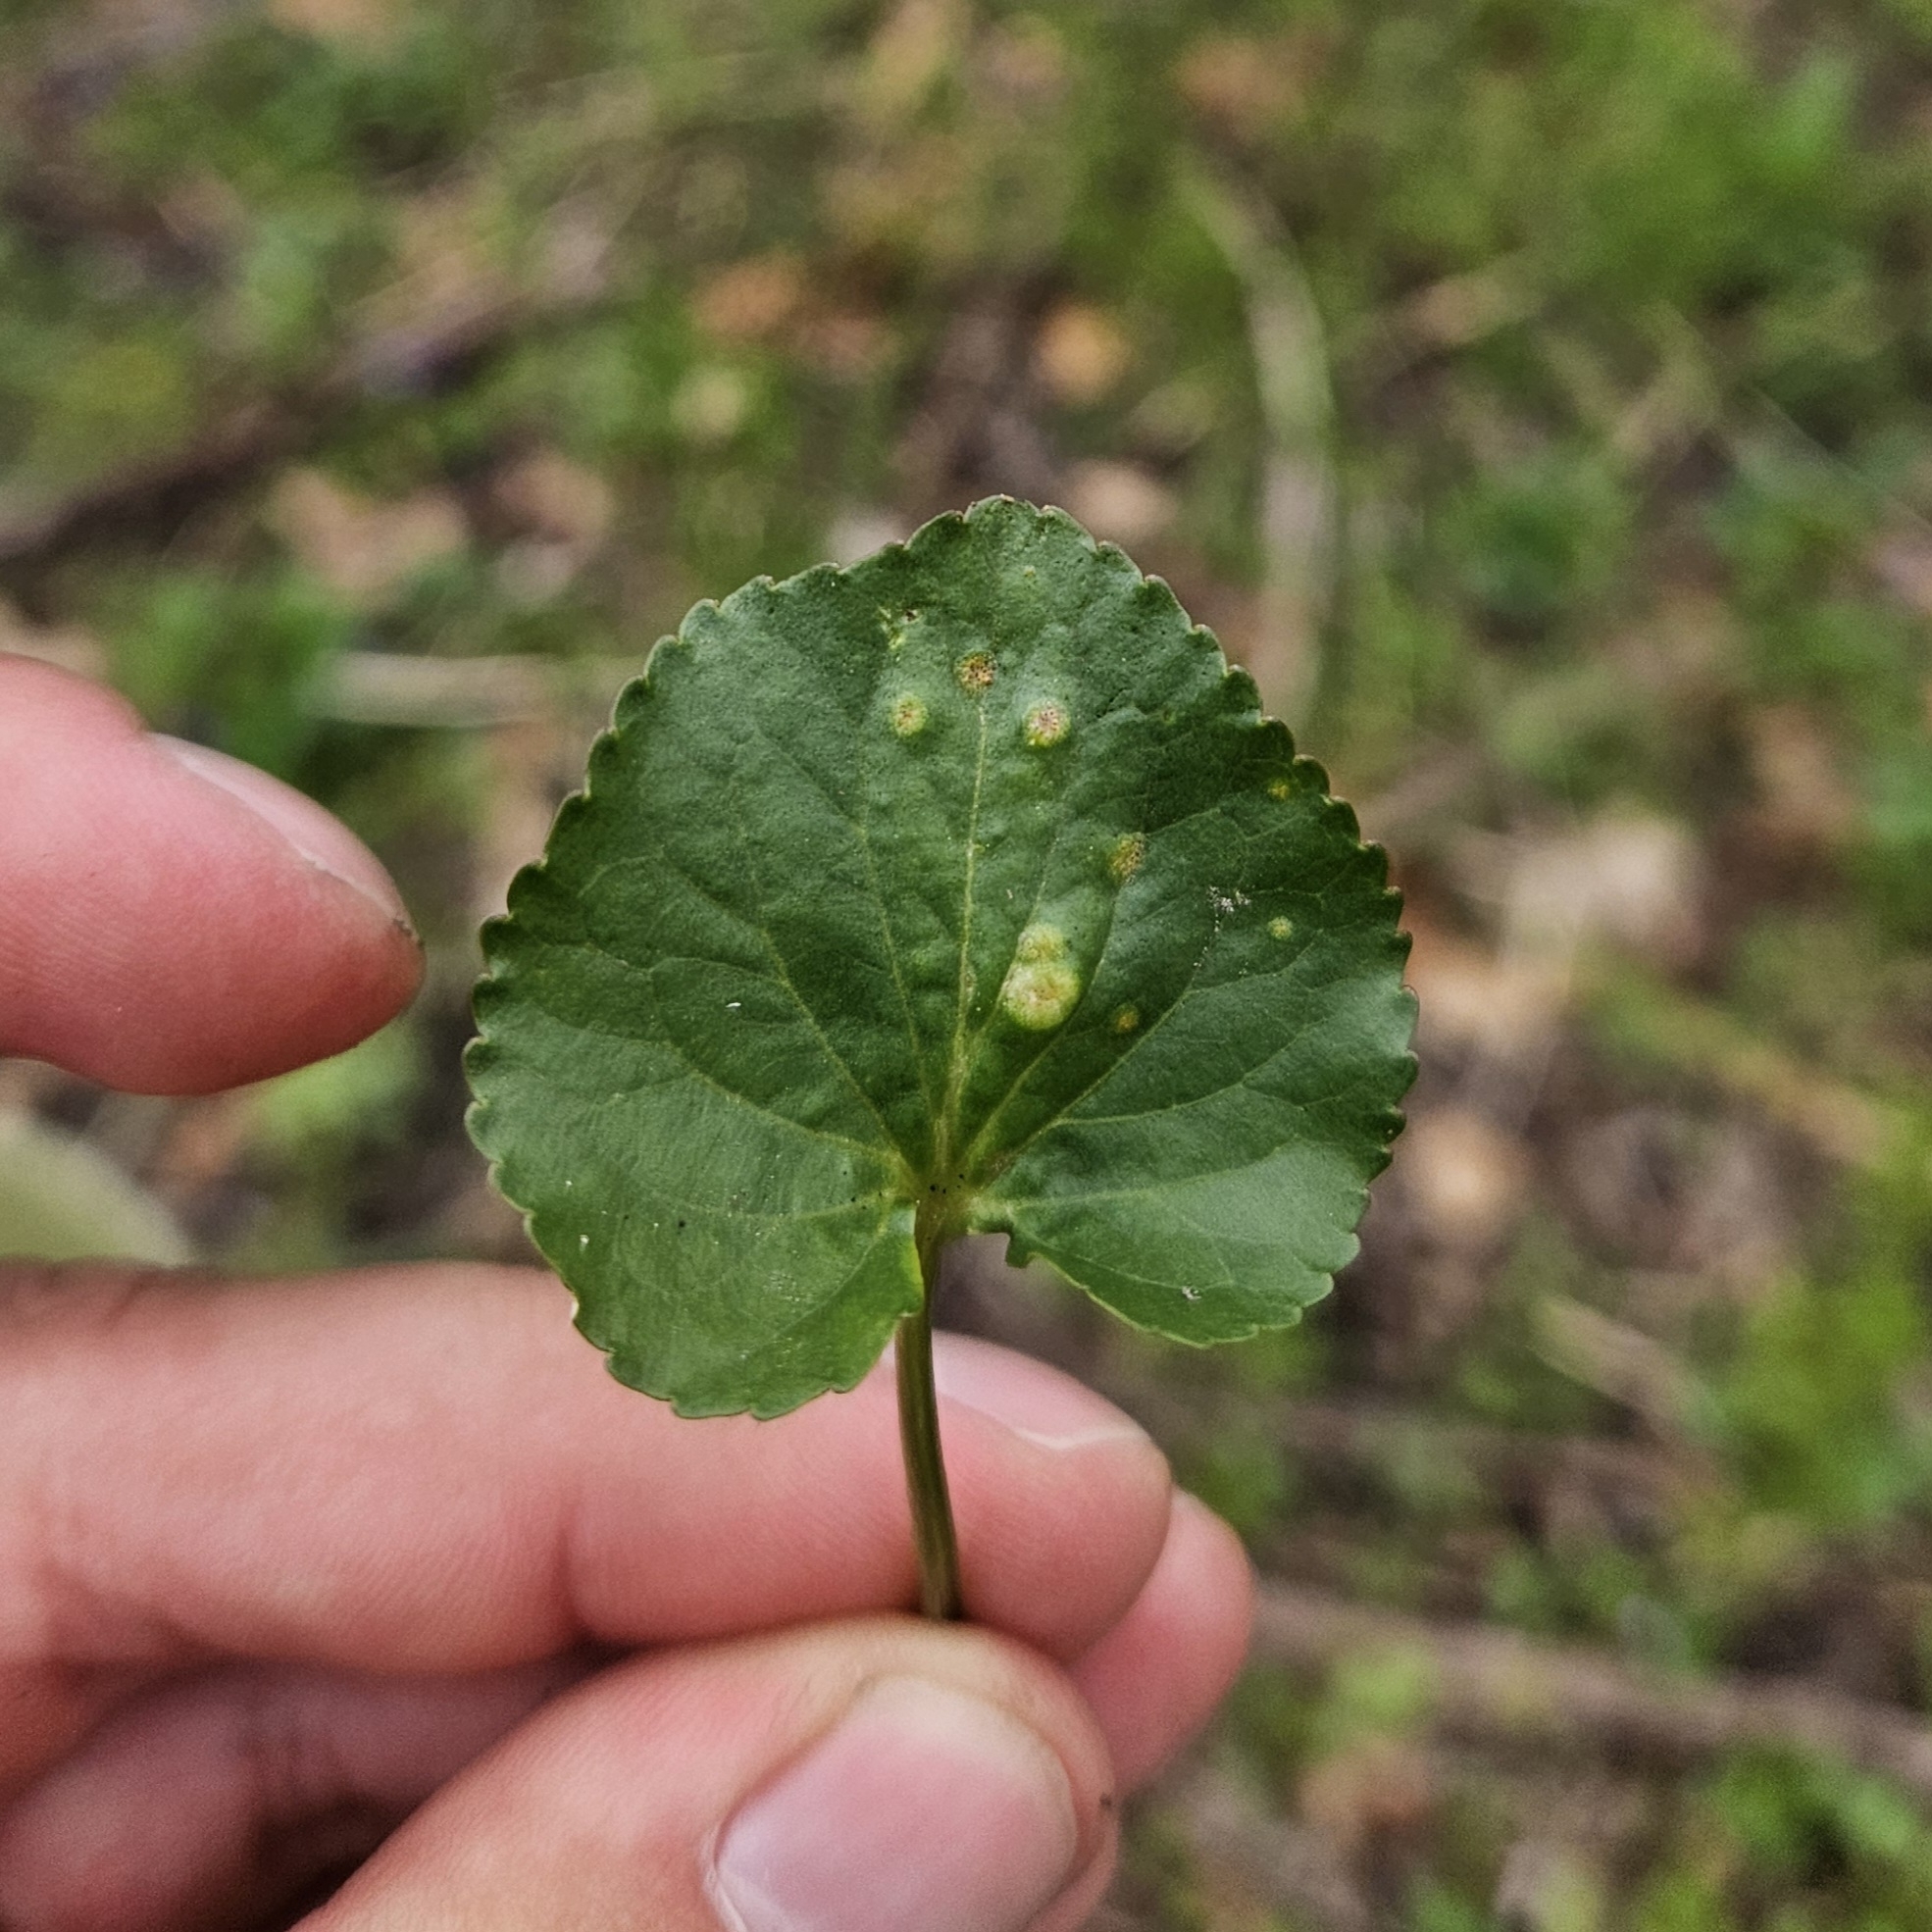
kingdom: Fungi
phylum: Basidiomycota
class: Pucciniomycetes
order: Pucciniales
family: Pucciniaceae
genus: Puccinia
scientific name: Puccinia violae
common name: Violet rust
